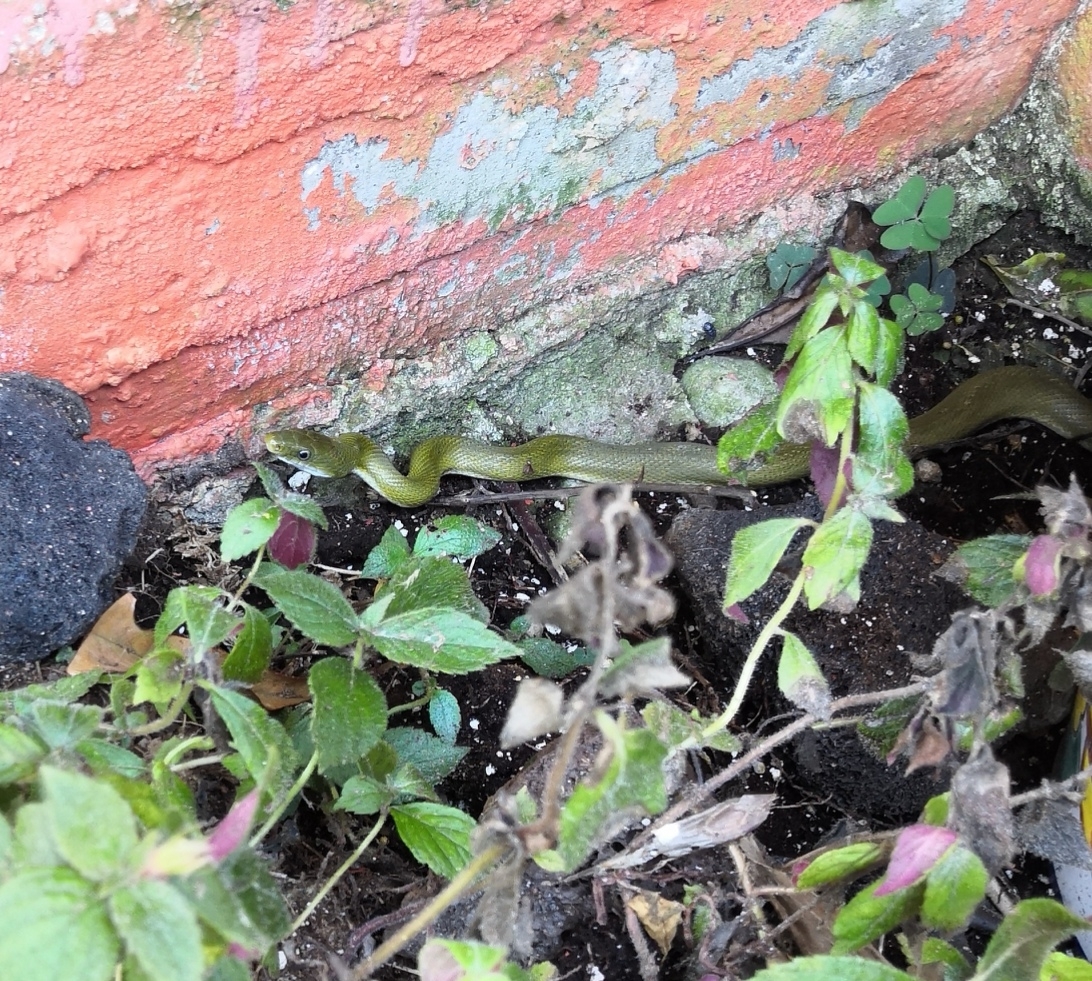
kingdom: Animalia
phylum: Chordata
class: Squamata
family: Colubridae
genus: Senticolis
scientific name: Senticolis triaspis
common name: Green rat snake
